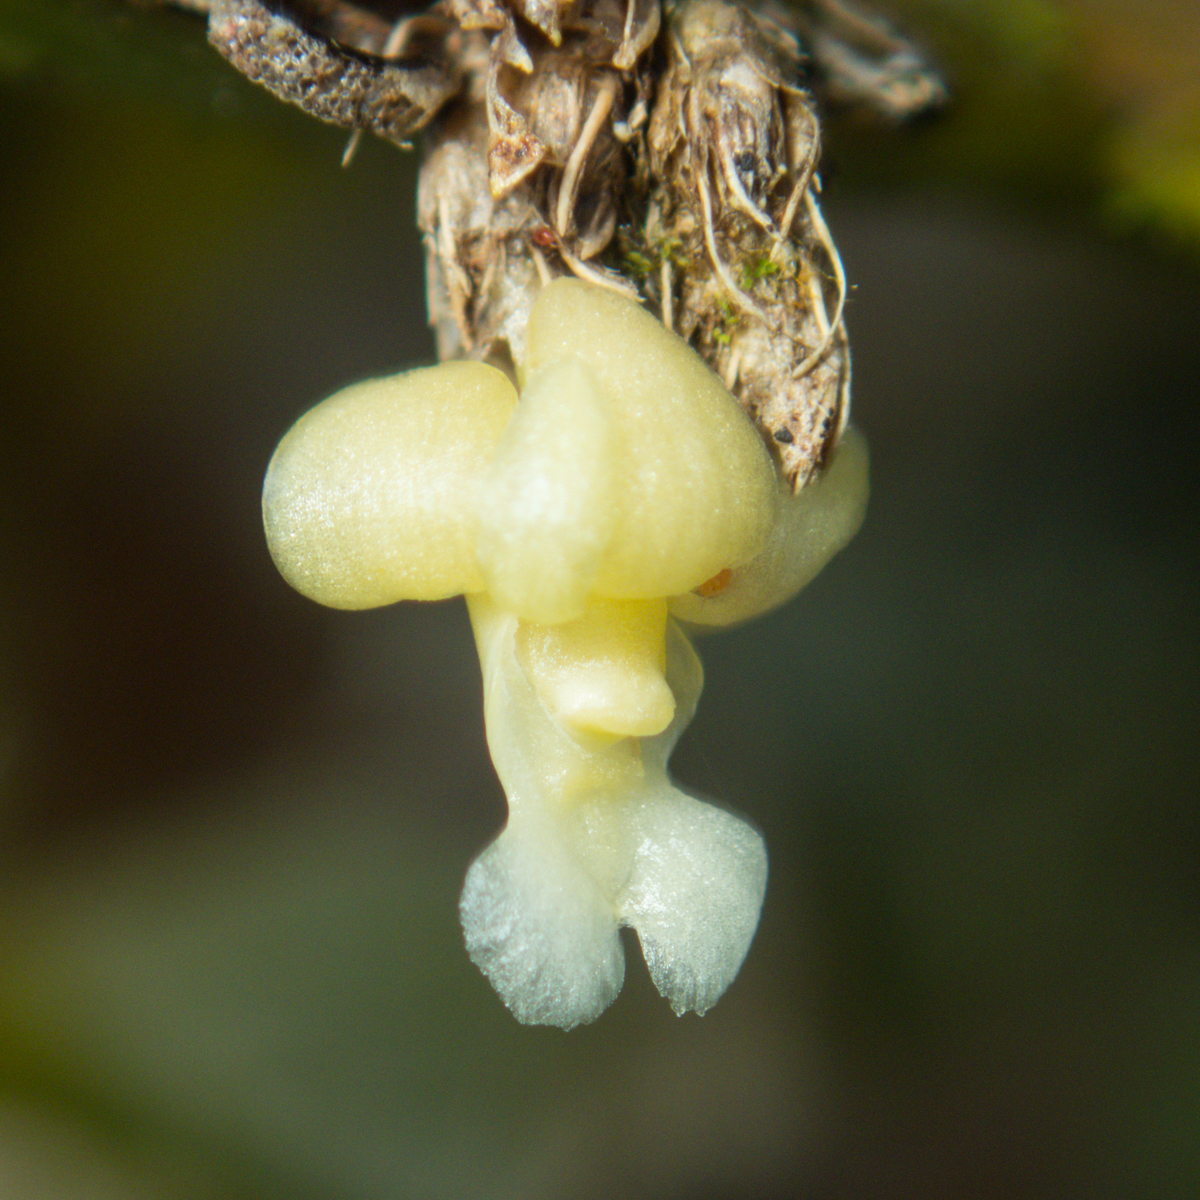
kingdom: Plantae
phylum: Tracheophyta
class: Liliopsida
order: Asparagales
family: Orchidaceae
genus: Dendrobium
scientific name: Dendrobium aloifolium
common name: Aloe-like dendrobium
